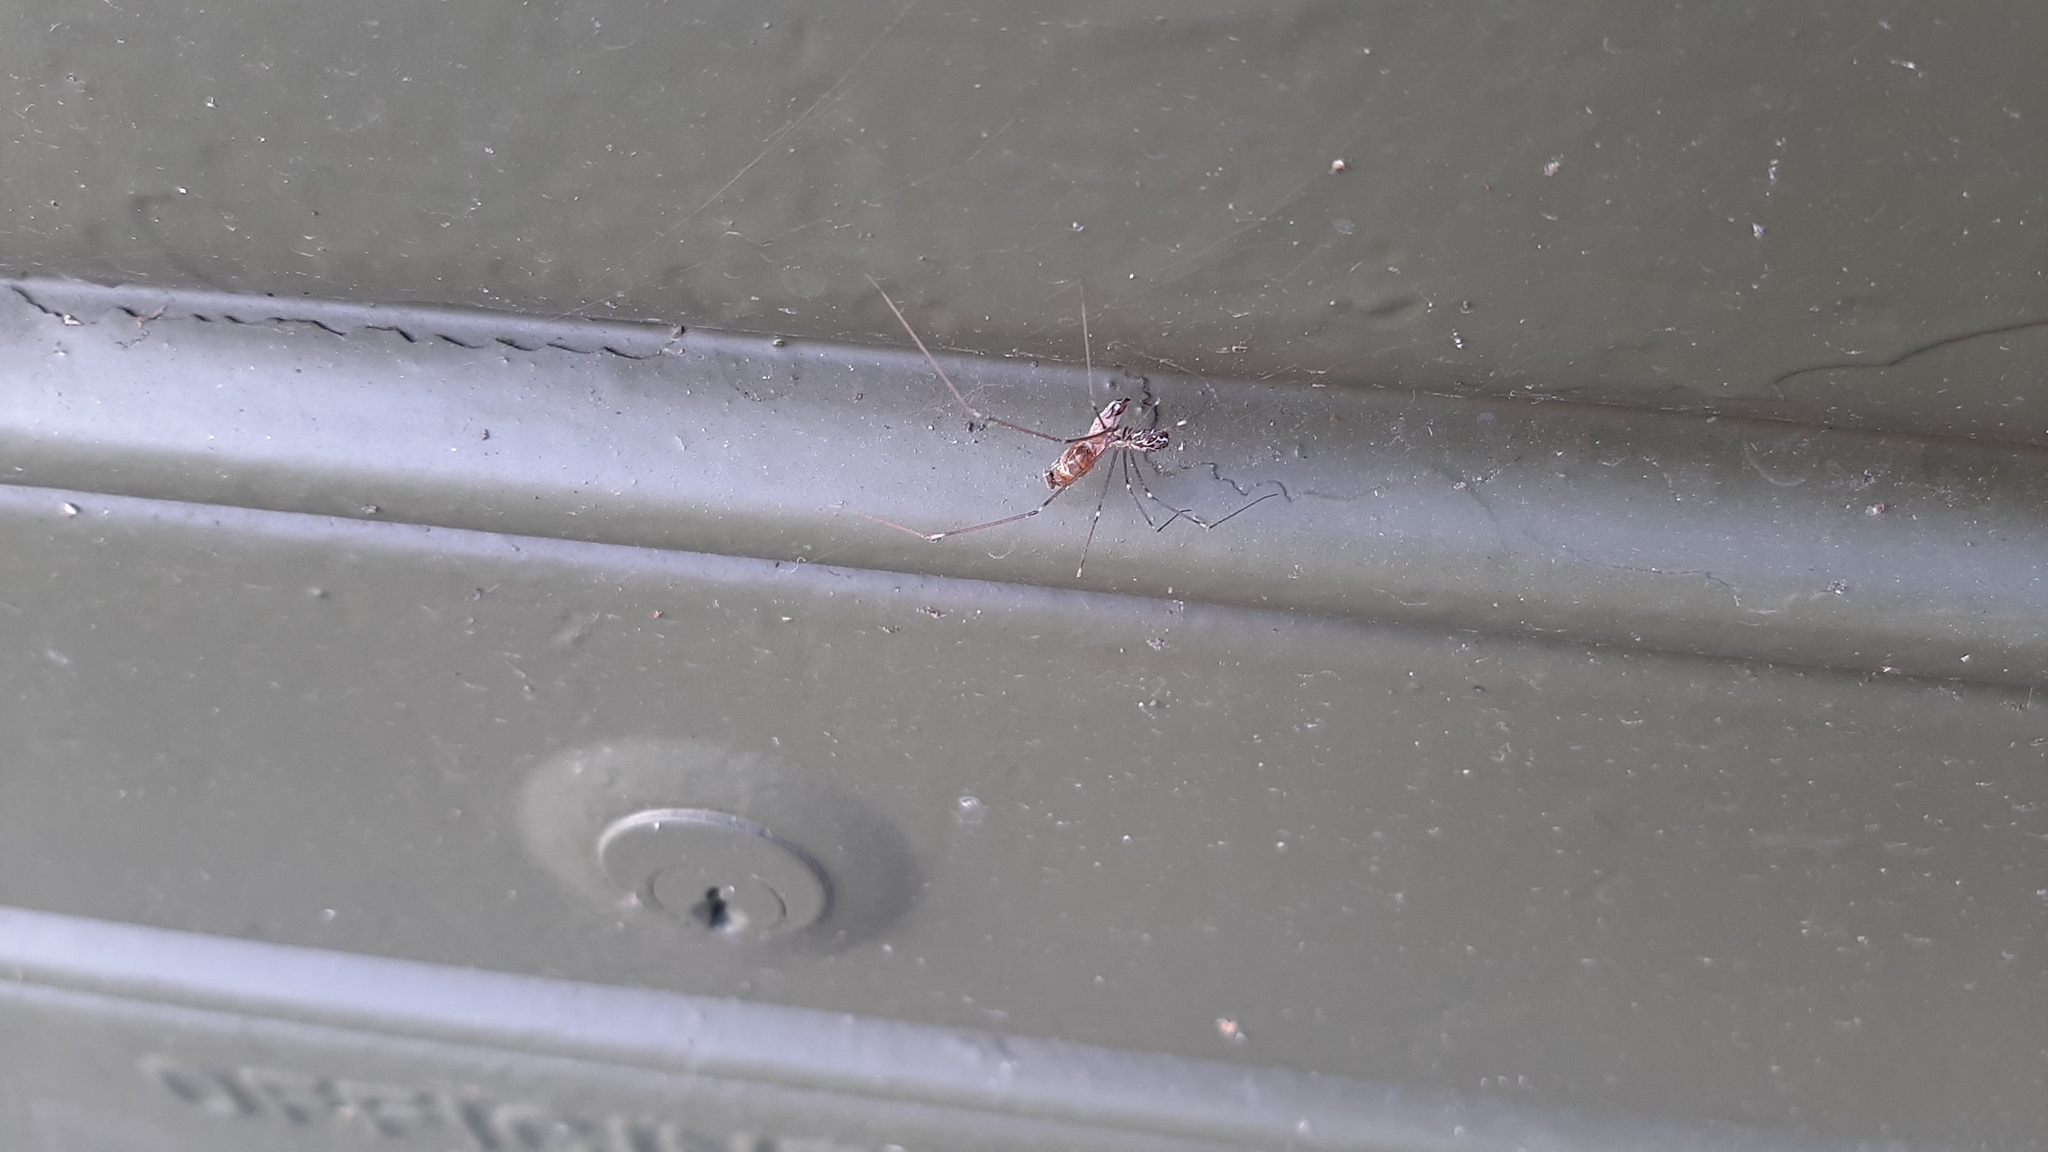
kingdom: Animalia
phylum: Arthropoda
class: Arachnida
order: Araneae
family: Pholcidae
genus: Holocnemus
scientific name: Holocnemus pluchei
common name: Marbled cellar spider
